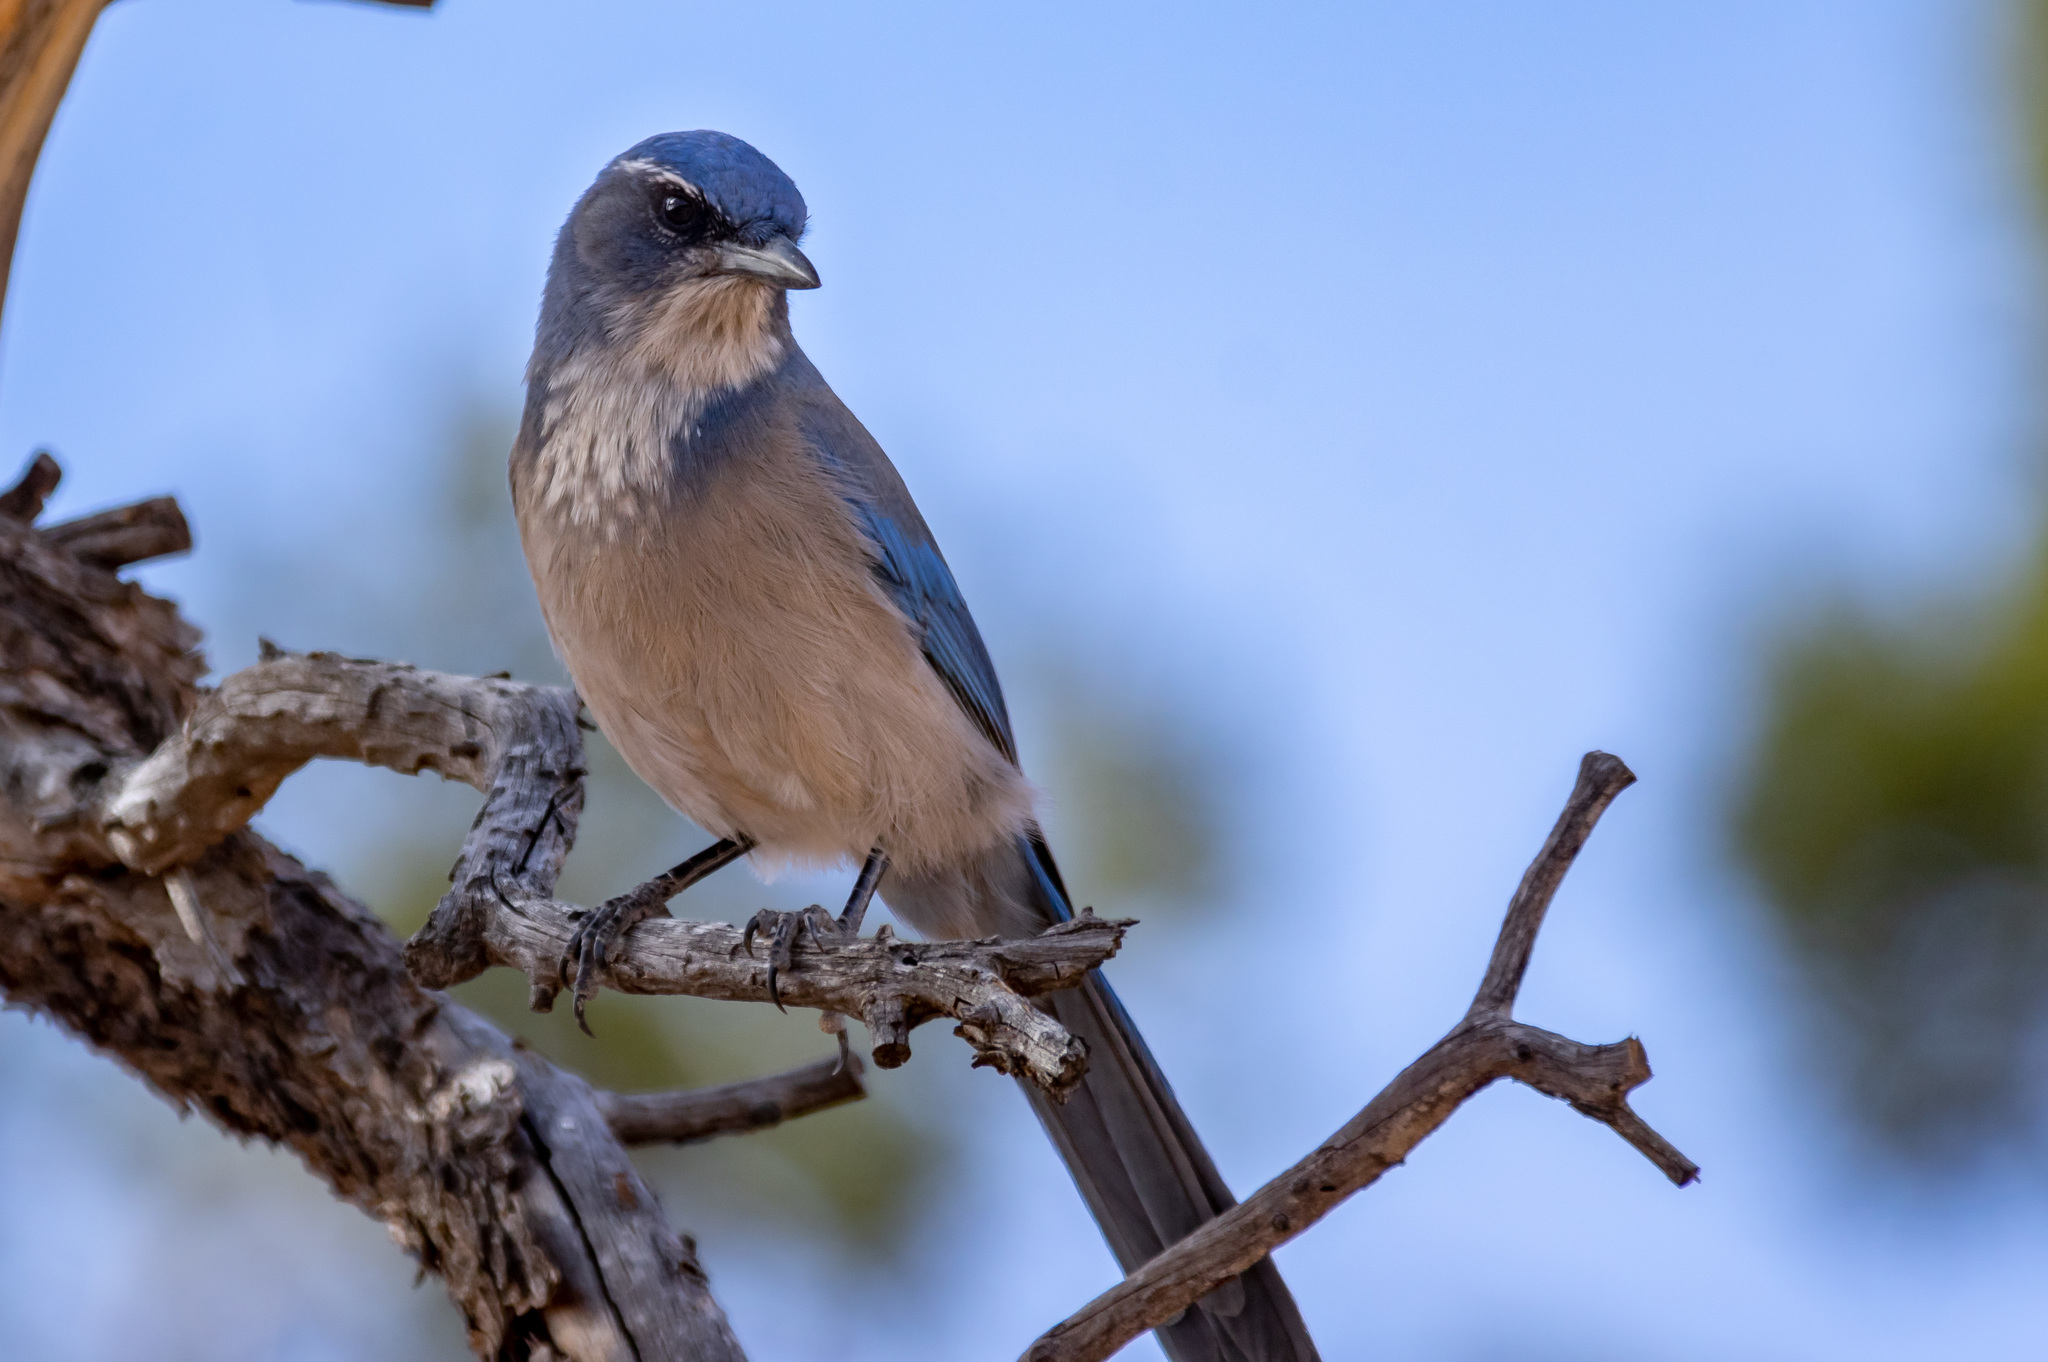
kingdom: Animalia
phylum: Chordata
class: Aves
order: Passeriformes
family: Corvidae
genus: Aphelocoma
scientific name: Aphelocoma woodhouseii
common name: Woodhouse's scrub-jay
